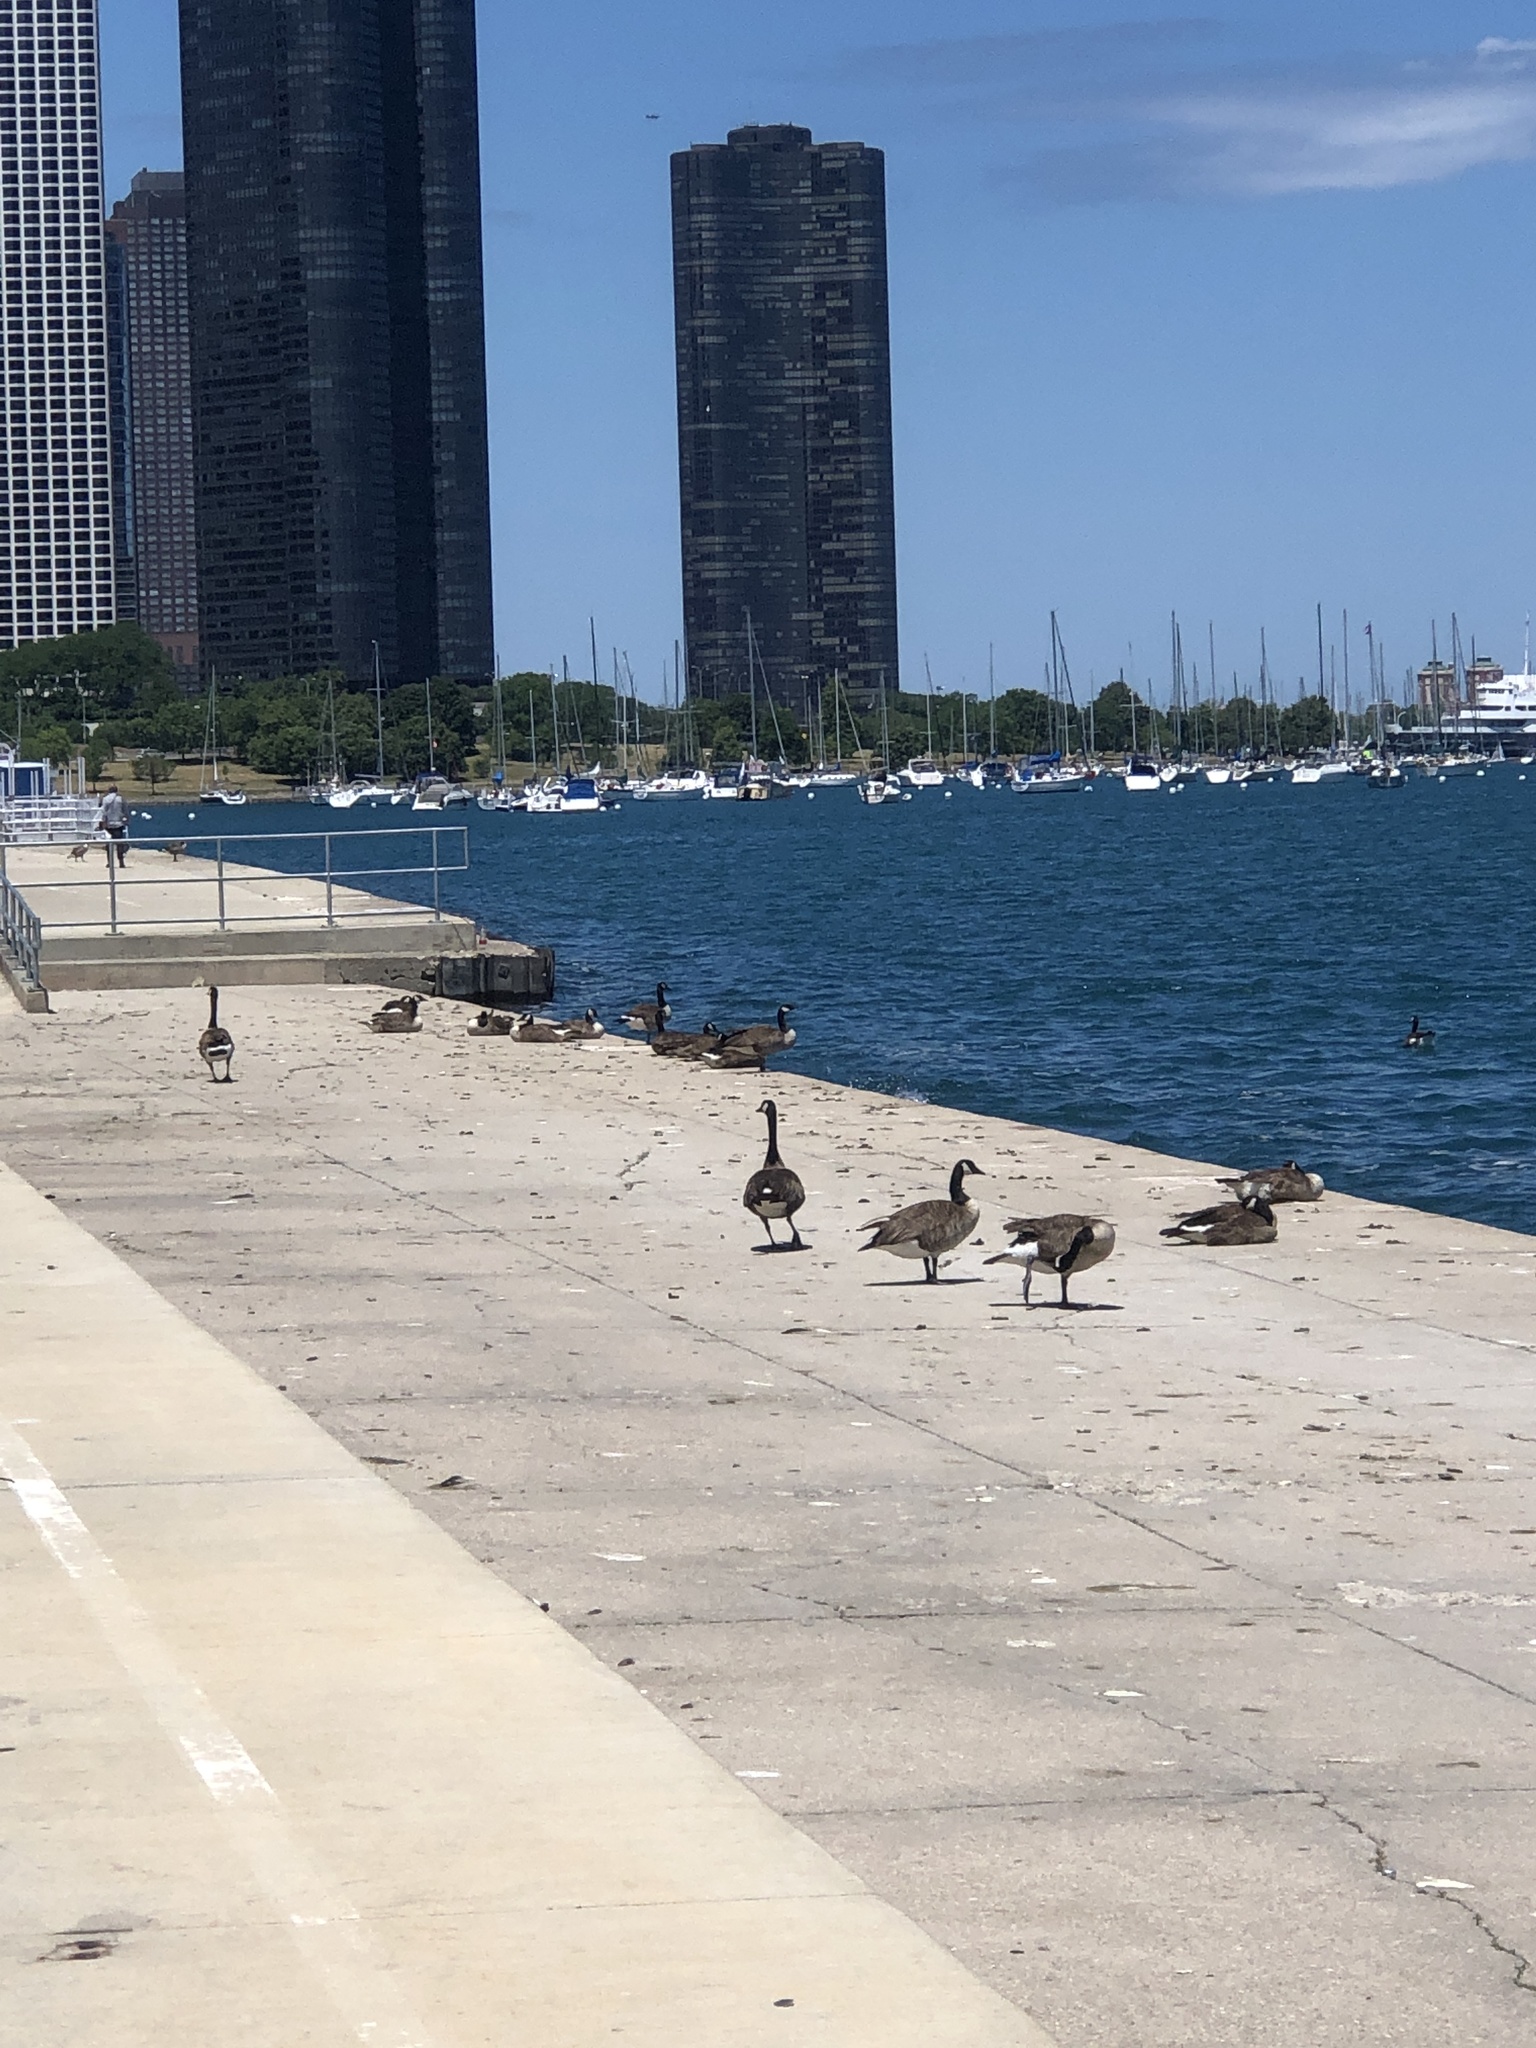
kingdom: Animalia
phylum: Chordata
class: Aves
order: Anseriformes
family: Anatidae
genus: Branta
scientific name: Branta canadensis
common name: Canada goose
